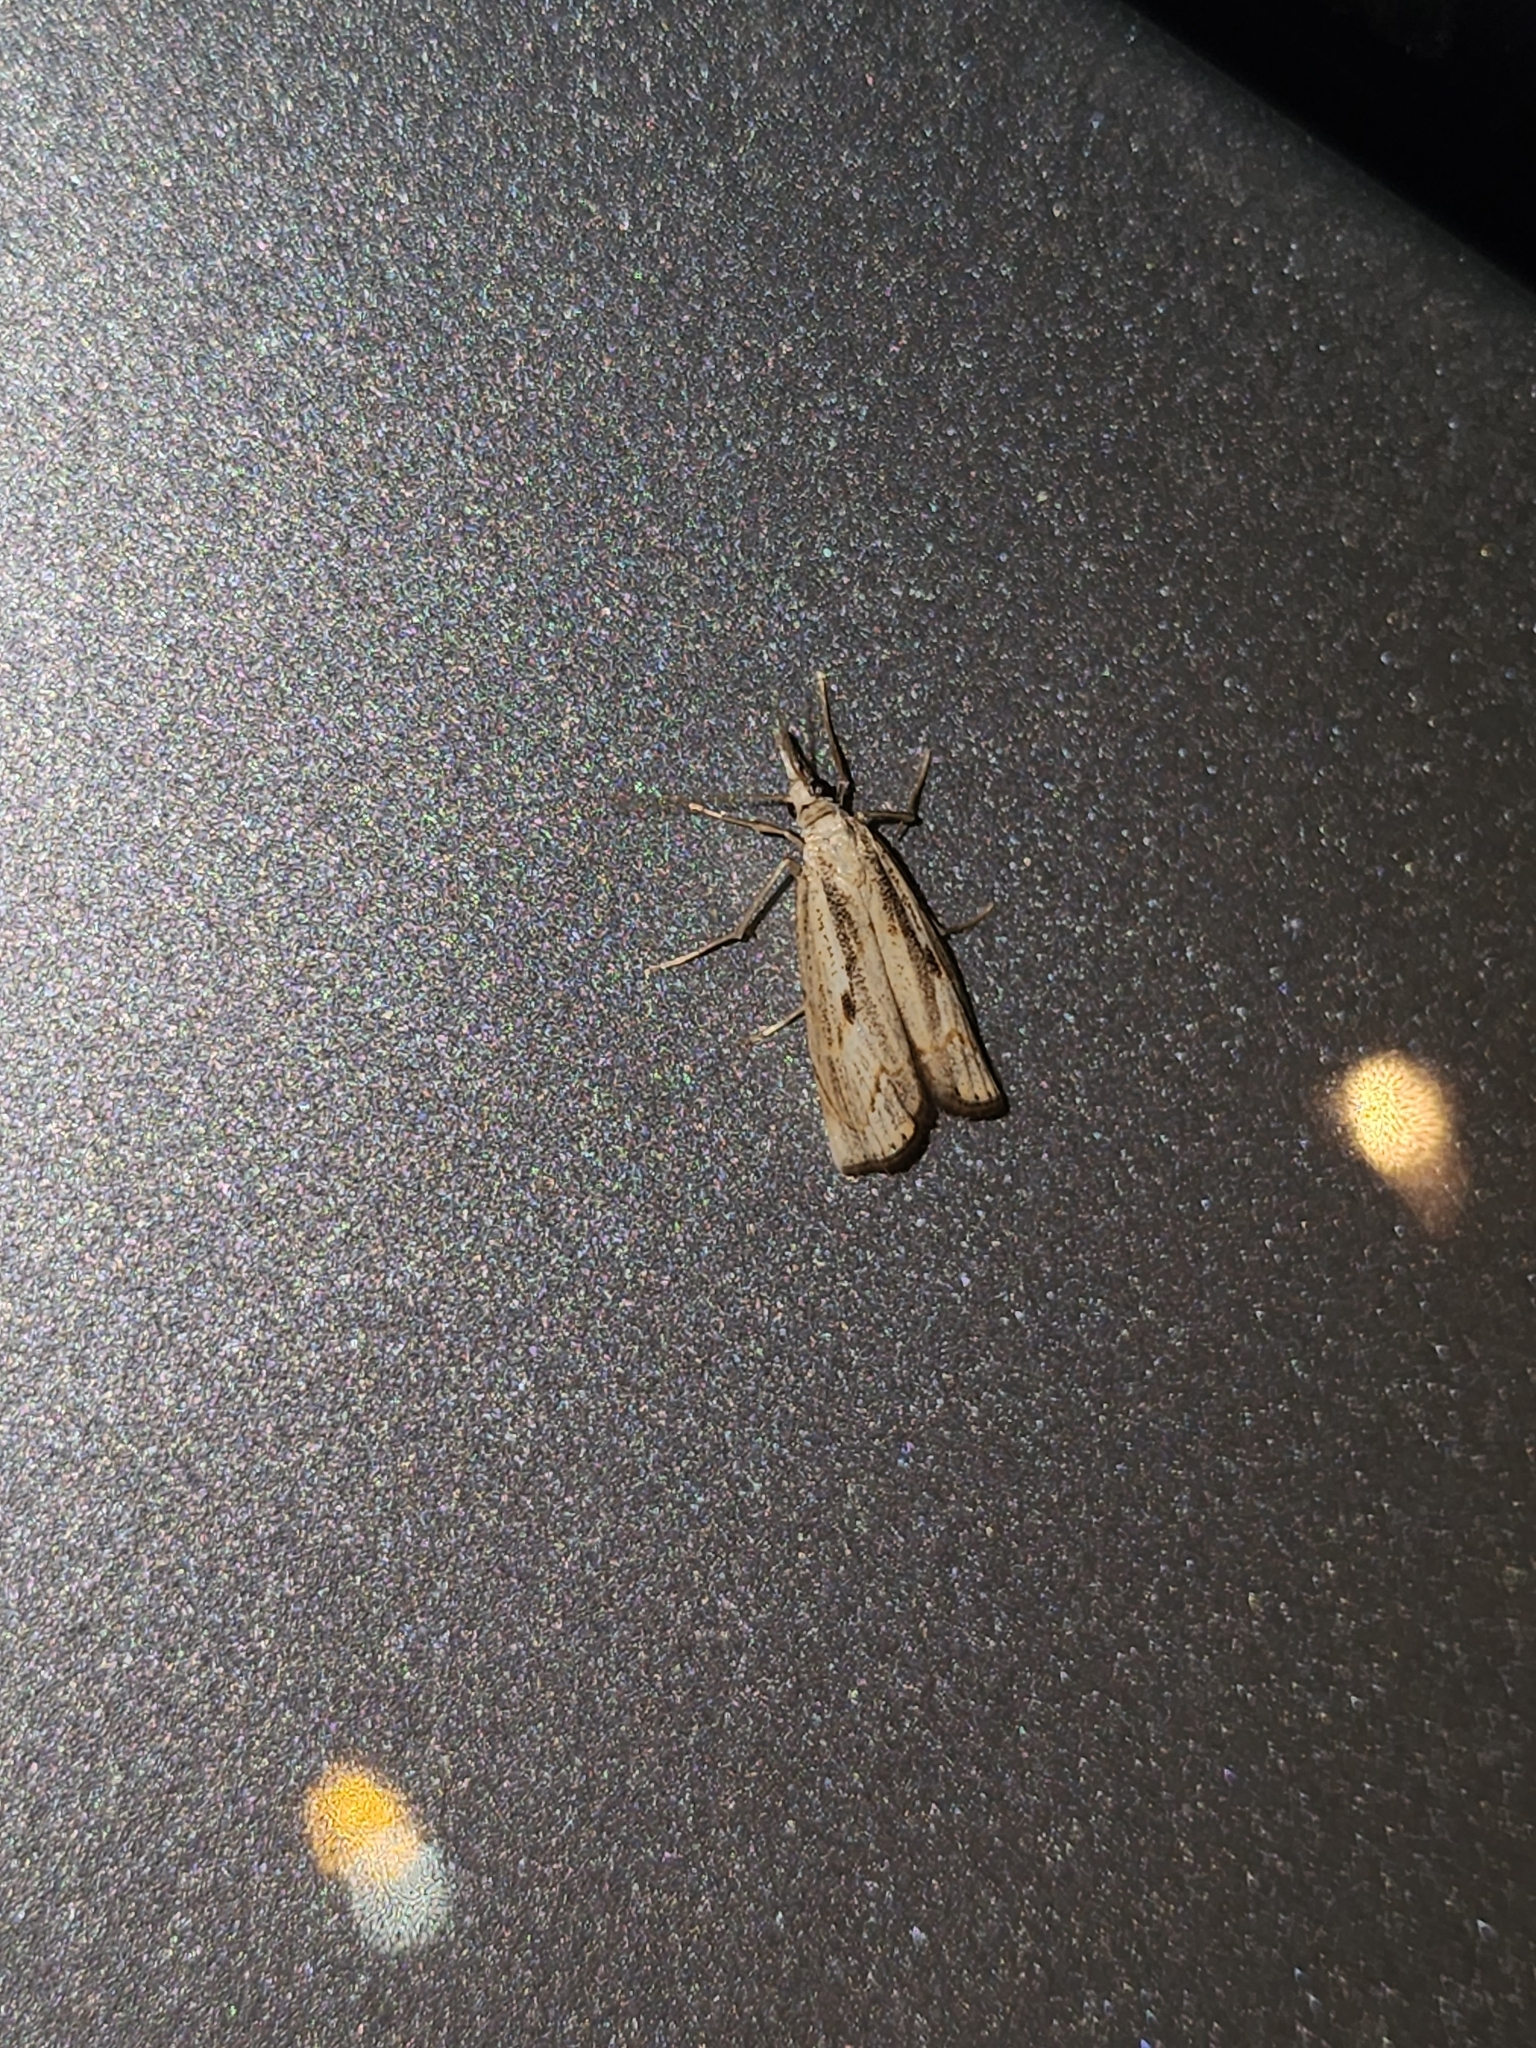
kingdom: Animalia
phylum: Arthropoda
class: Insecta
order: Lepidoptera
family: Crambidae
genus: Agriphila
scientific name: Agriphila geniculea
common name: Elbow-stripe grass-veneer
